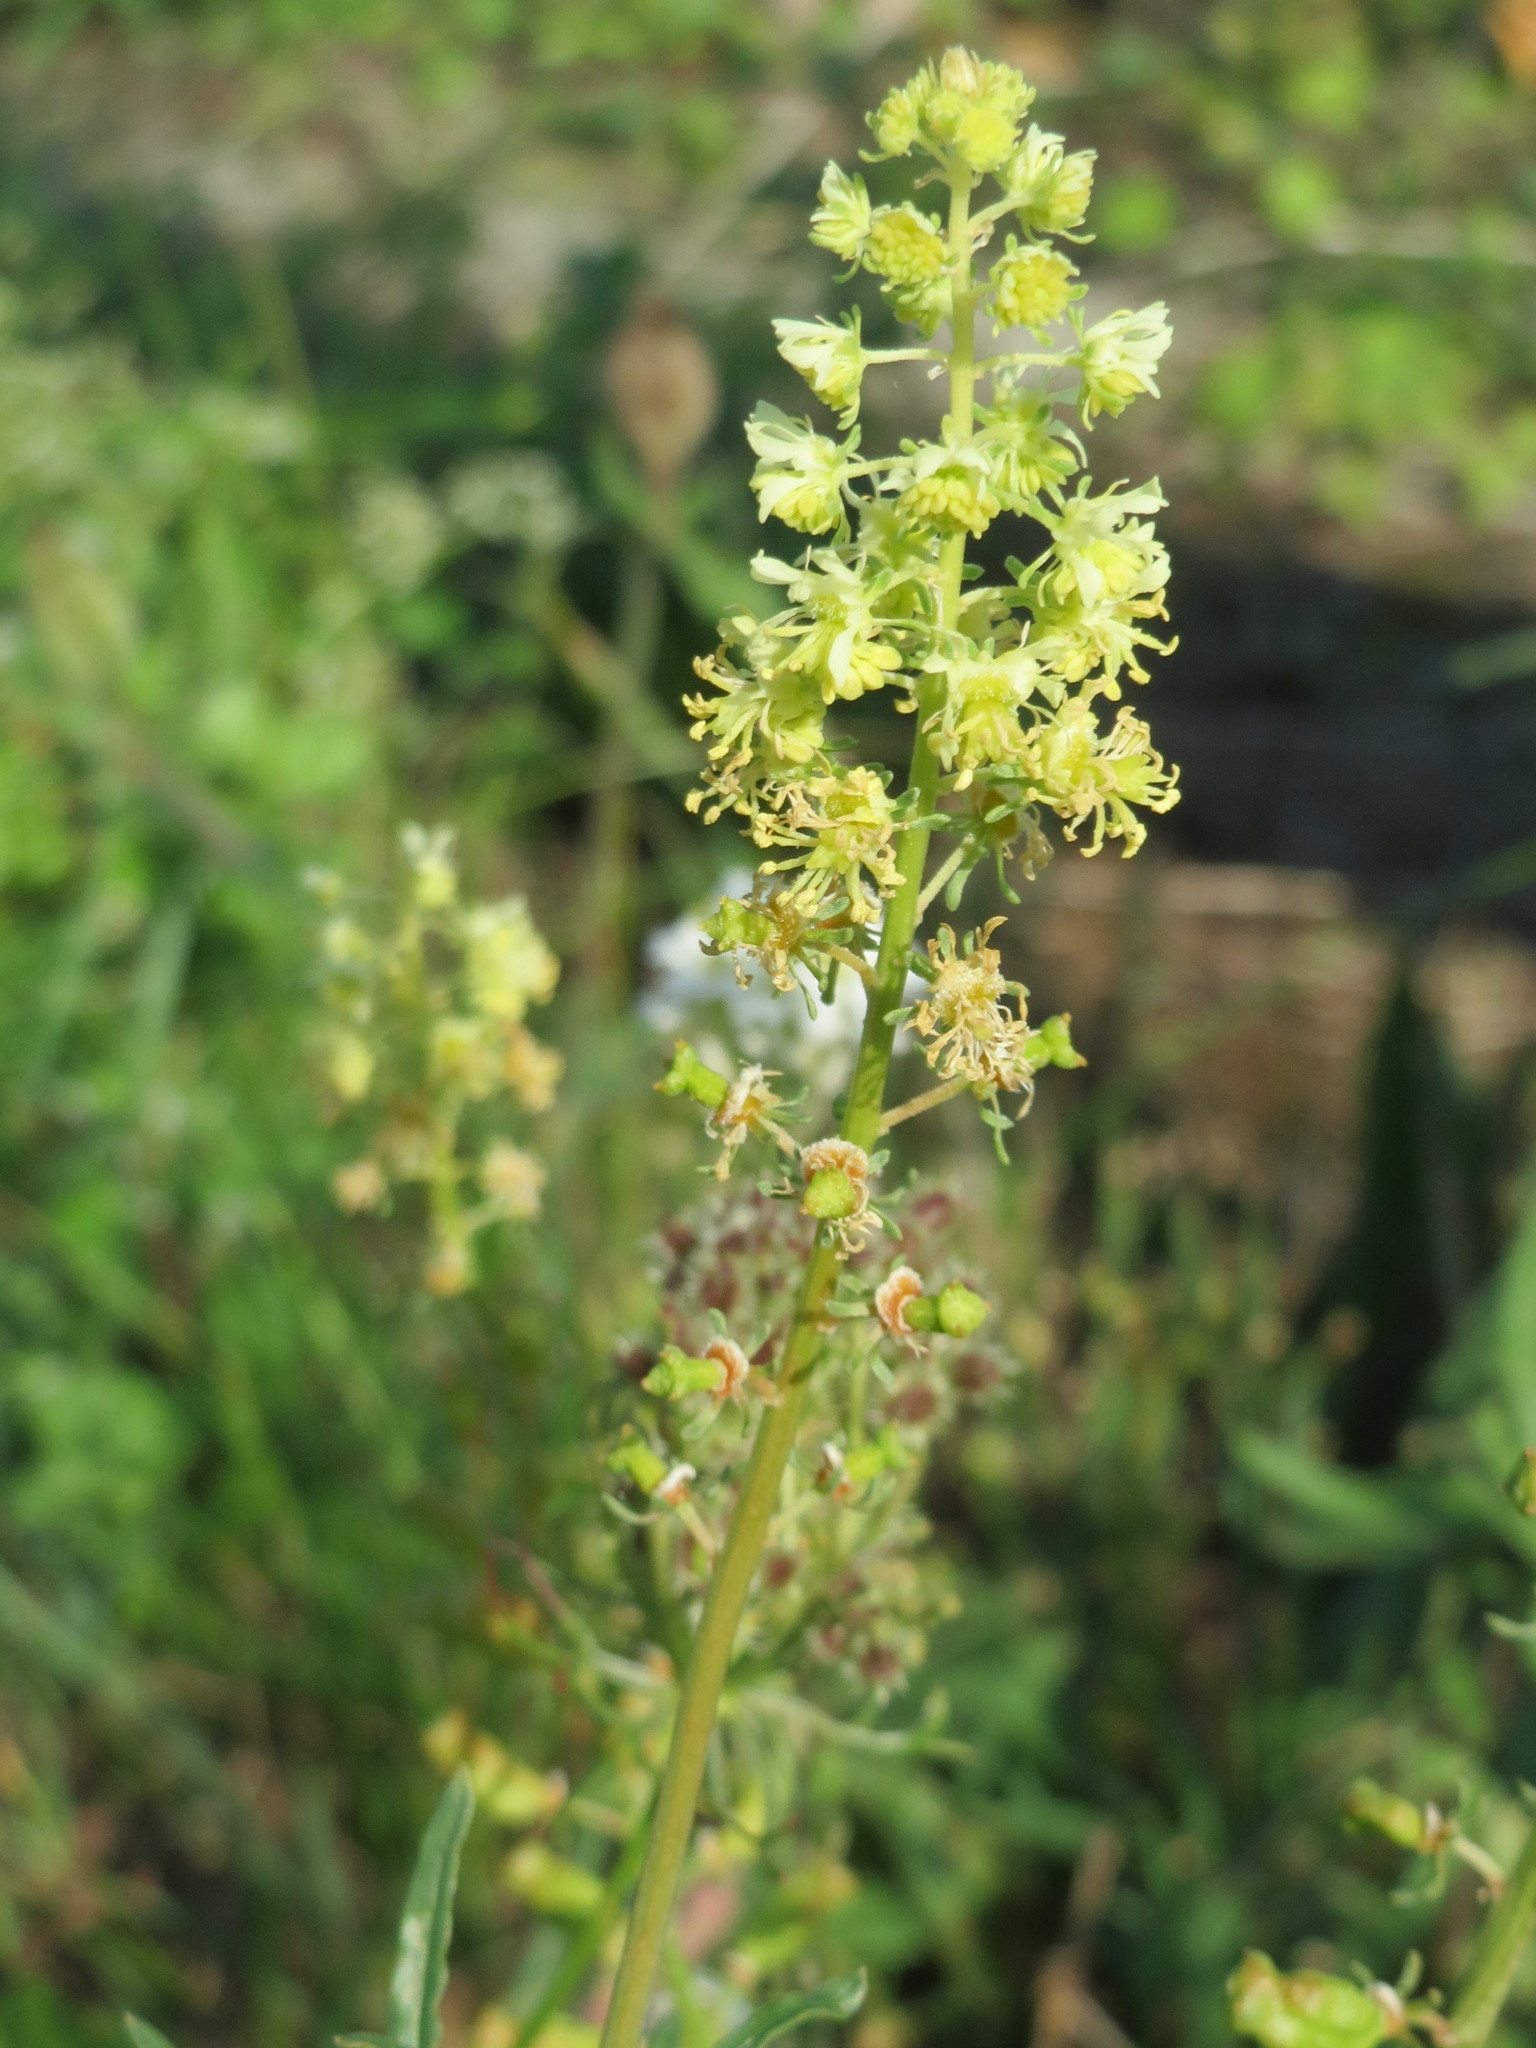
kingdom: Plantae
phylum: Tracheophyta
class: Magnoliopsida
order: Brassicales
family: Resedaceae
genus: Reseda
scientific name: Reseda lutea
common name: Wild mignonette
